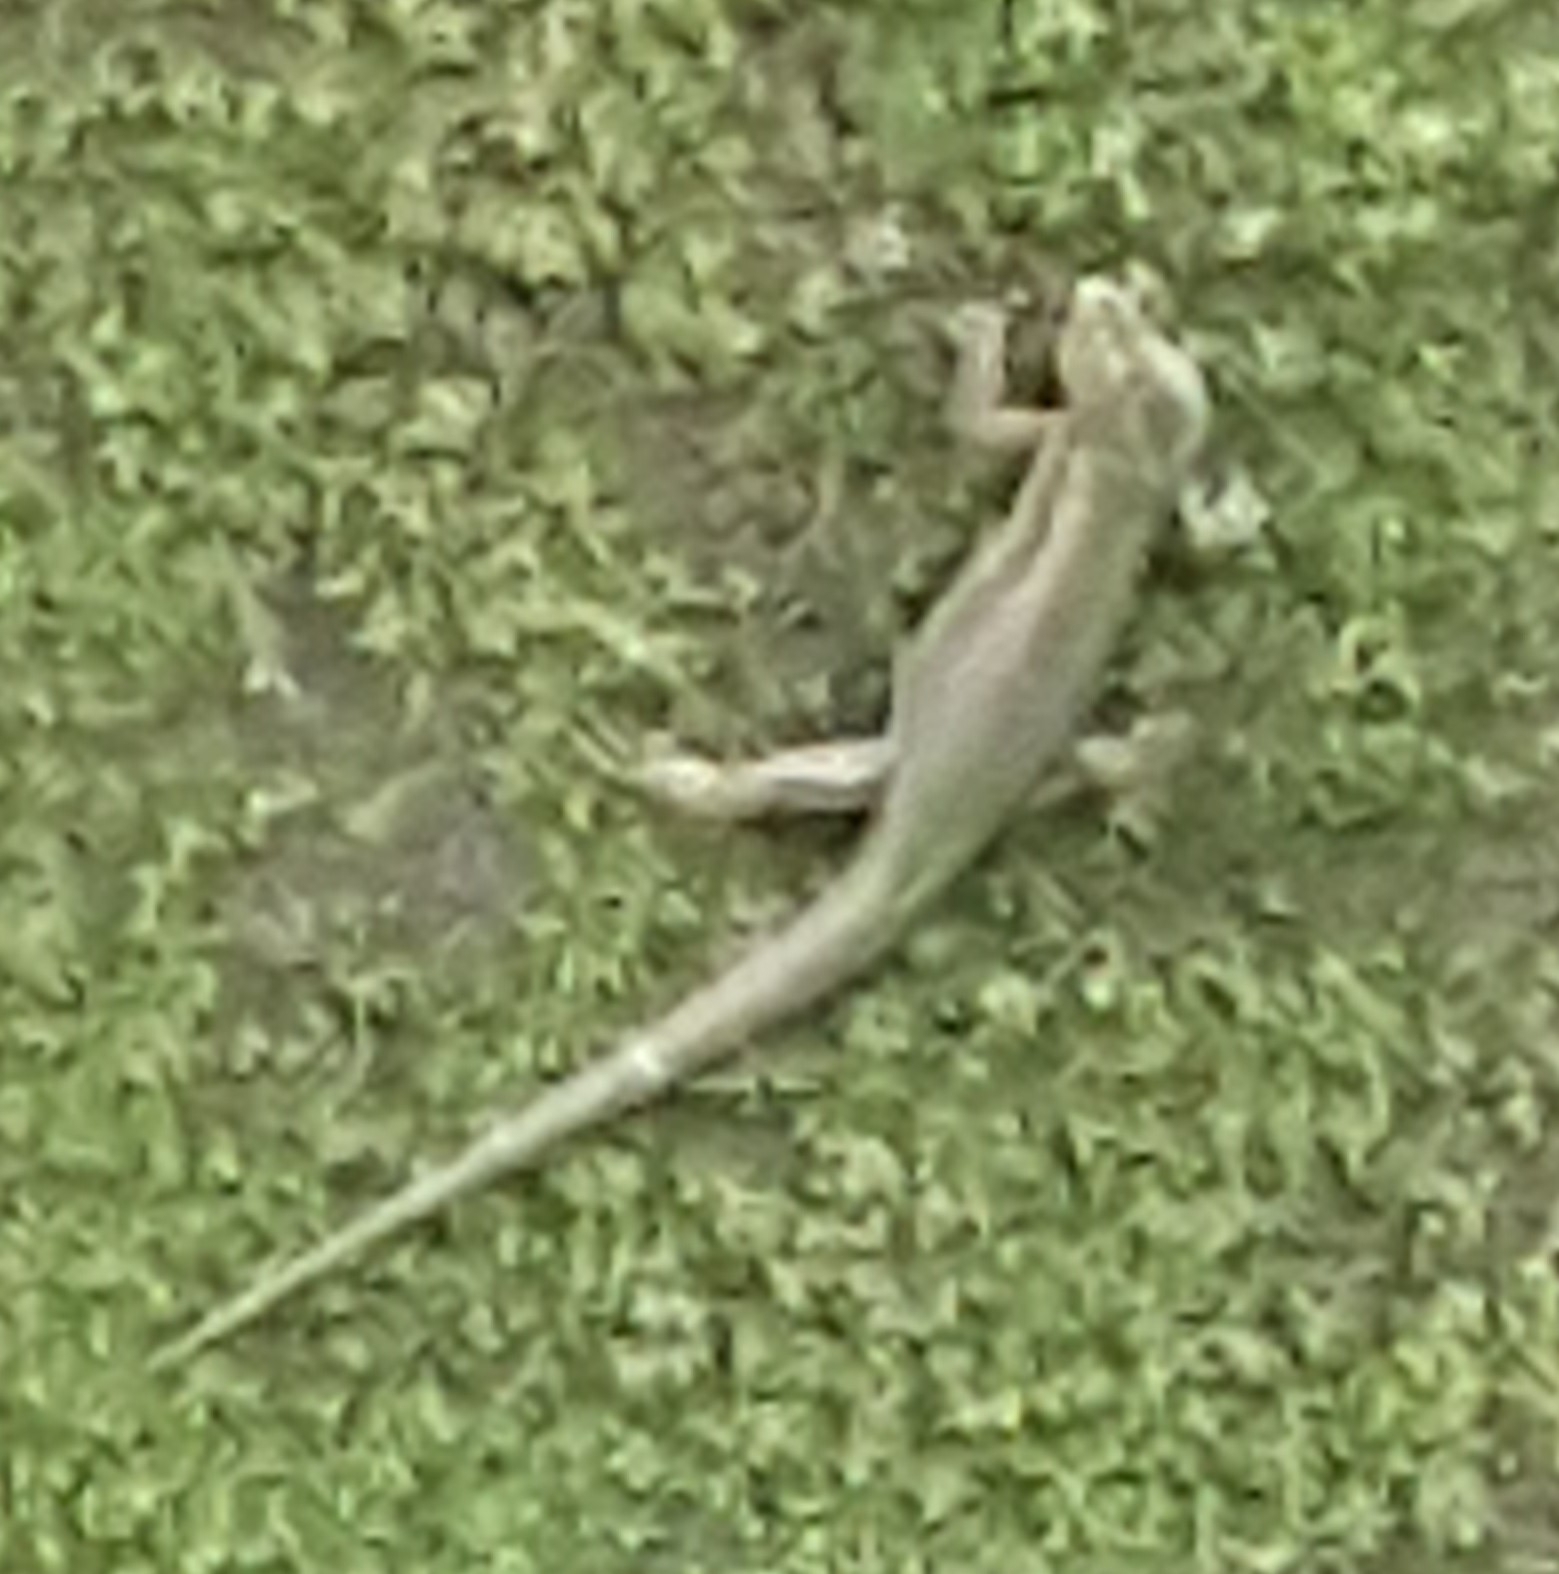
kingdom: Animalia
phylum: Chordata
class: Squamata
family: Lacertidae
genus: Teira
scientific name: Teira dugesii
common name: Madeira lizard
